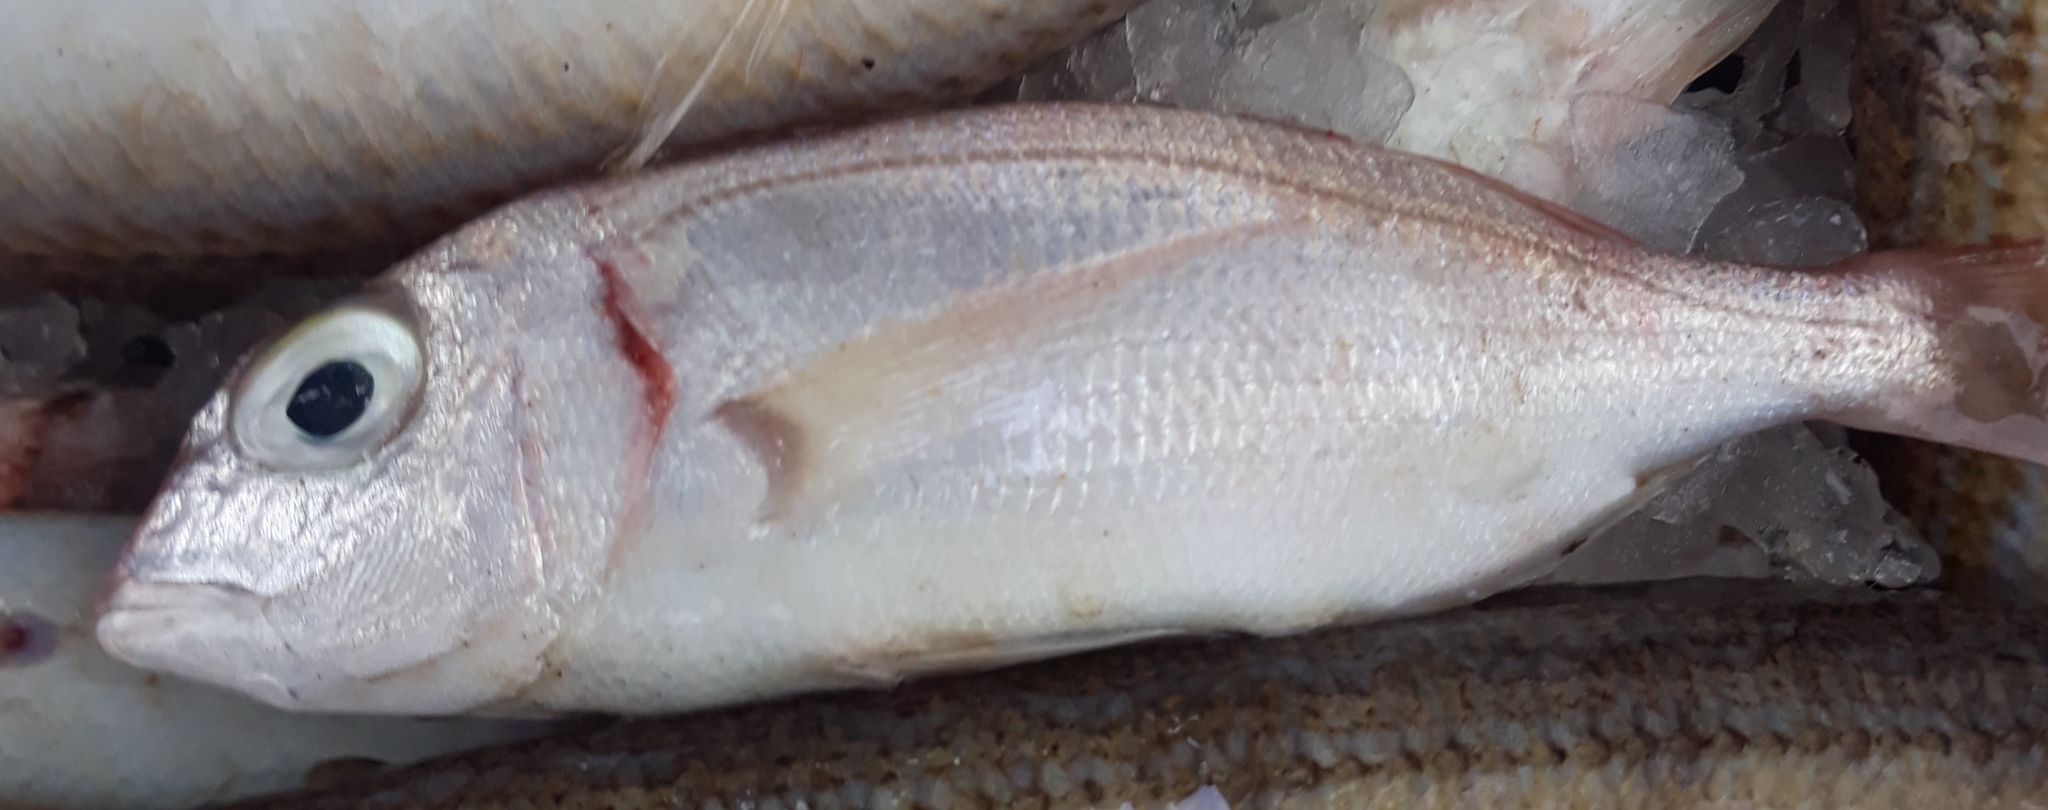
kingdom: Animalia
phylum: Chordata
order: Perciformes
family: Sparidae
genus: Pagellus
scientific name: Pagellus bellottii
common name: Red pandora
